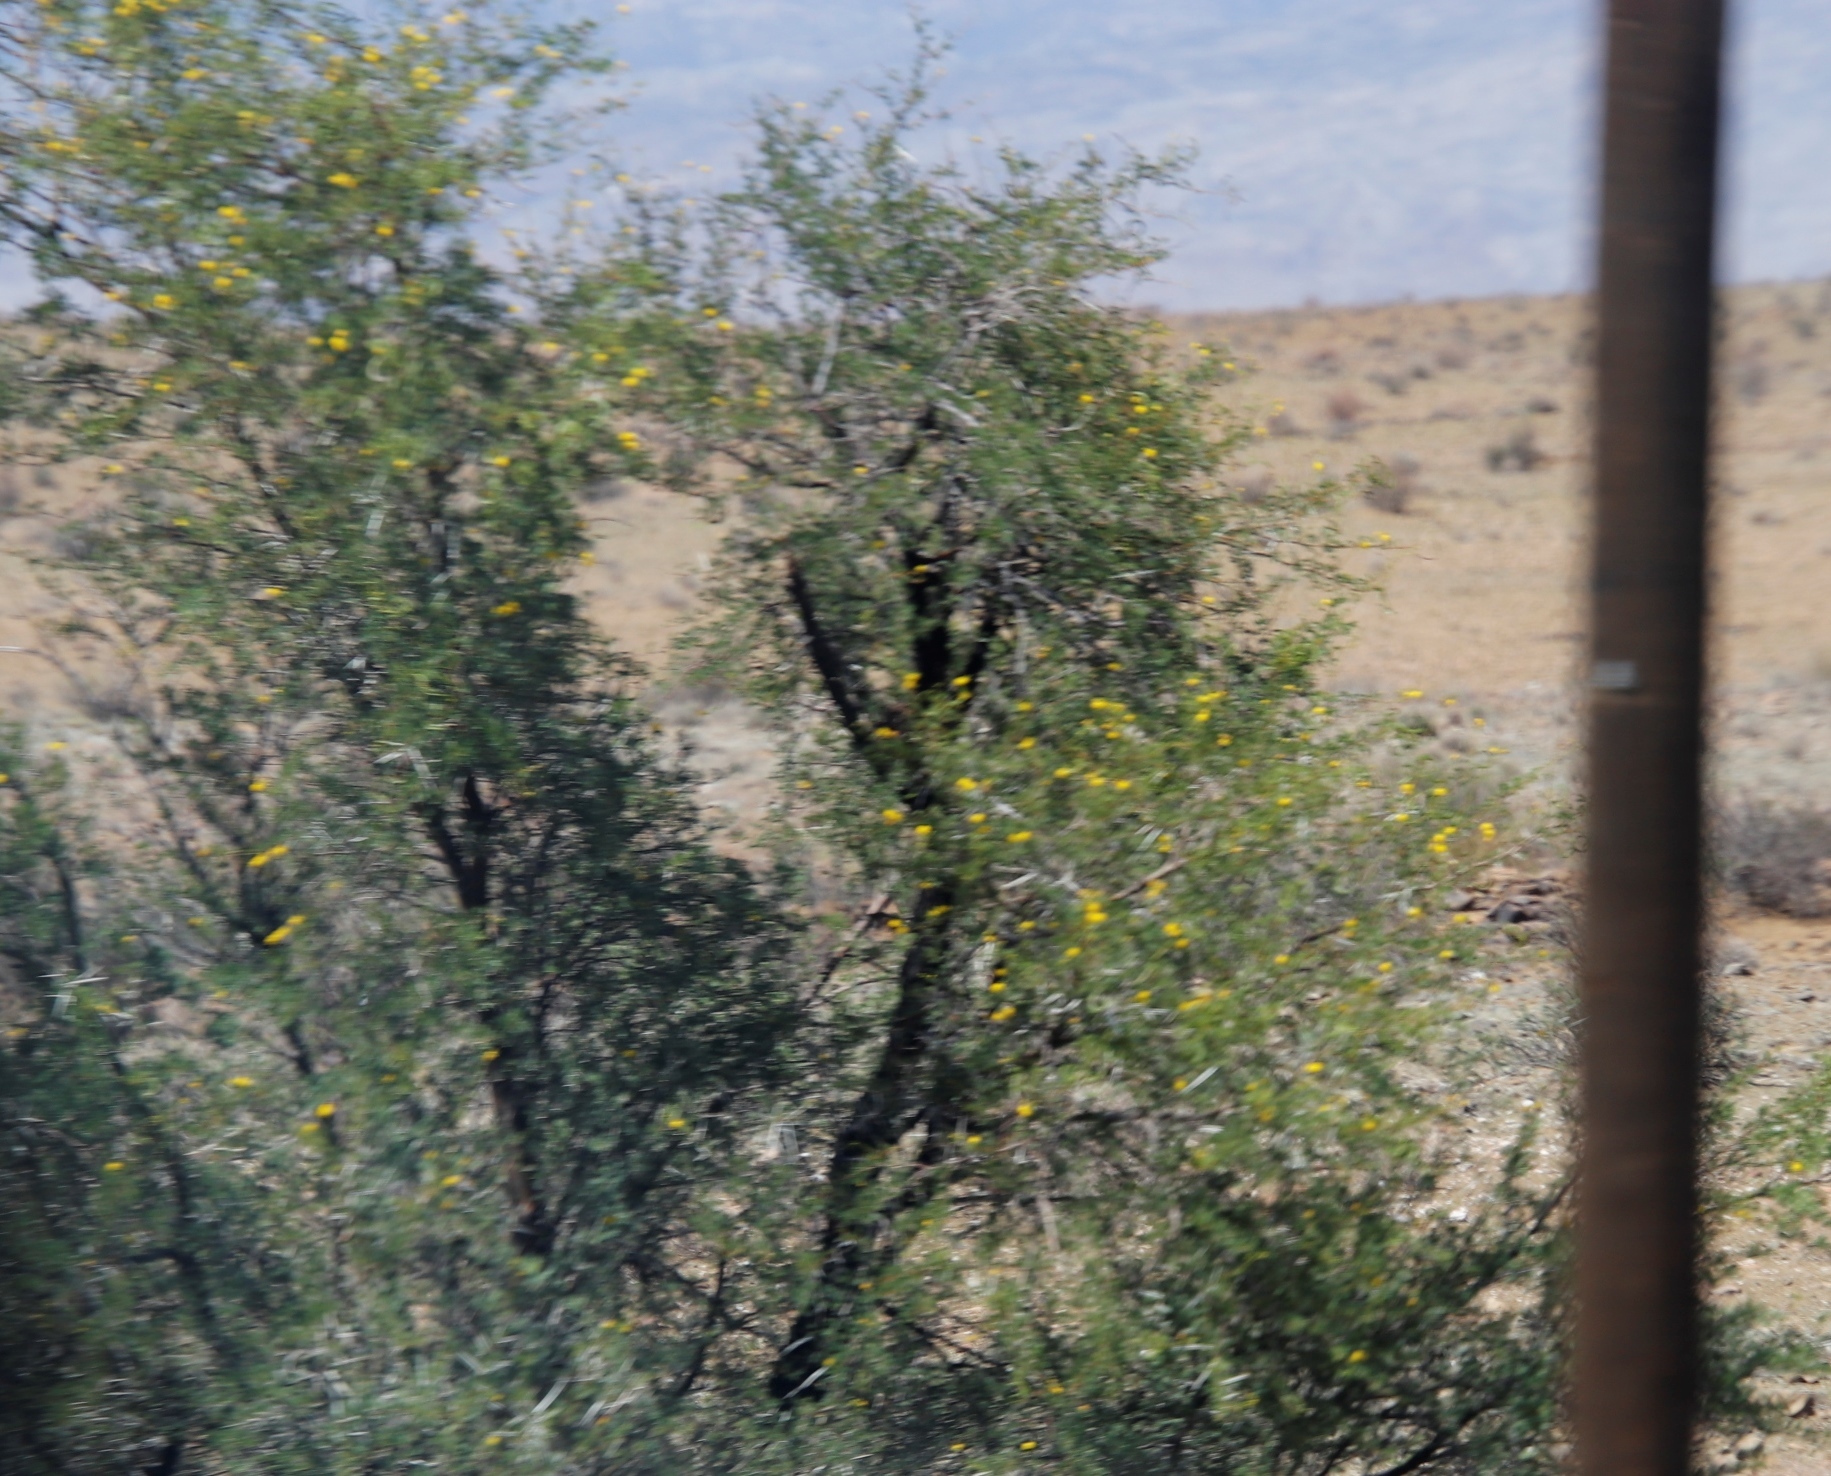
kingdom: Plantae
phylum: Tracheophyta
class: Magnoliopsida
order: Fabales
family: Fabaceae
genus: Vachellia
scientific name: Vachellia karroo
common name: Sweet thorn
